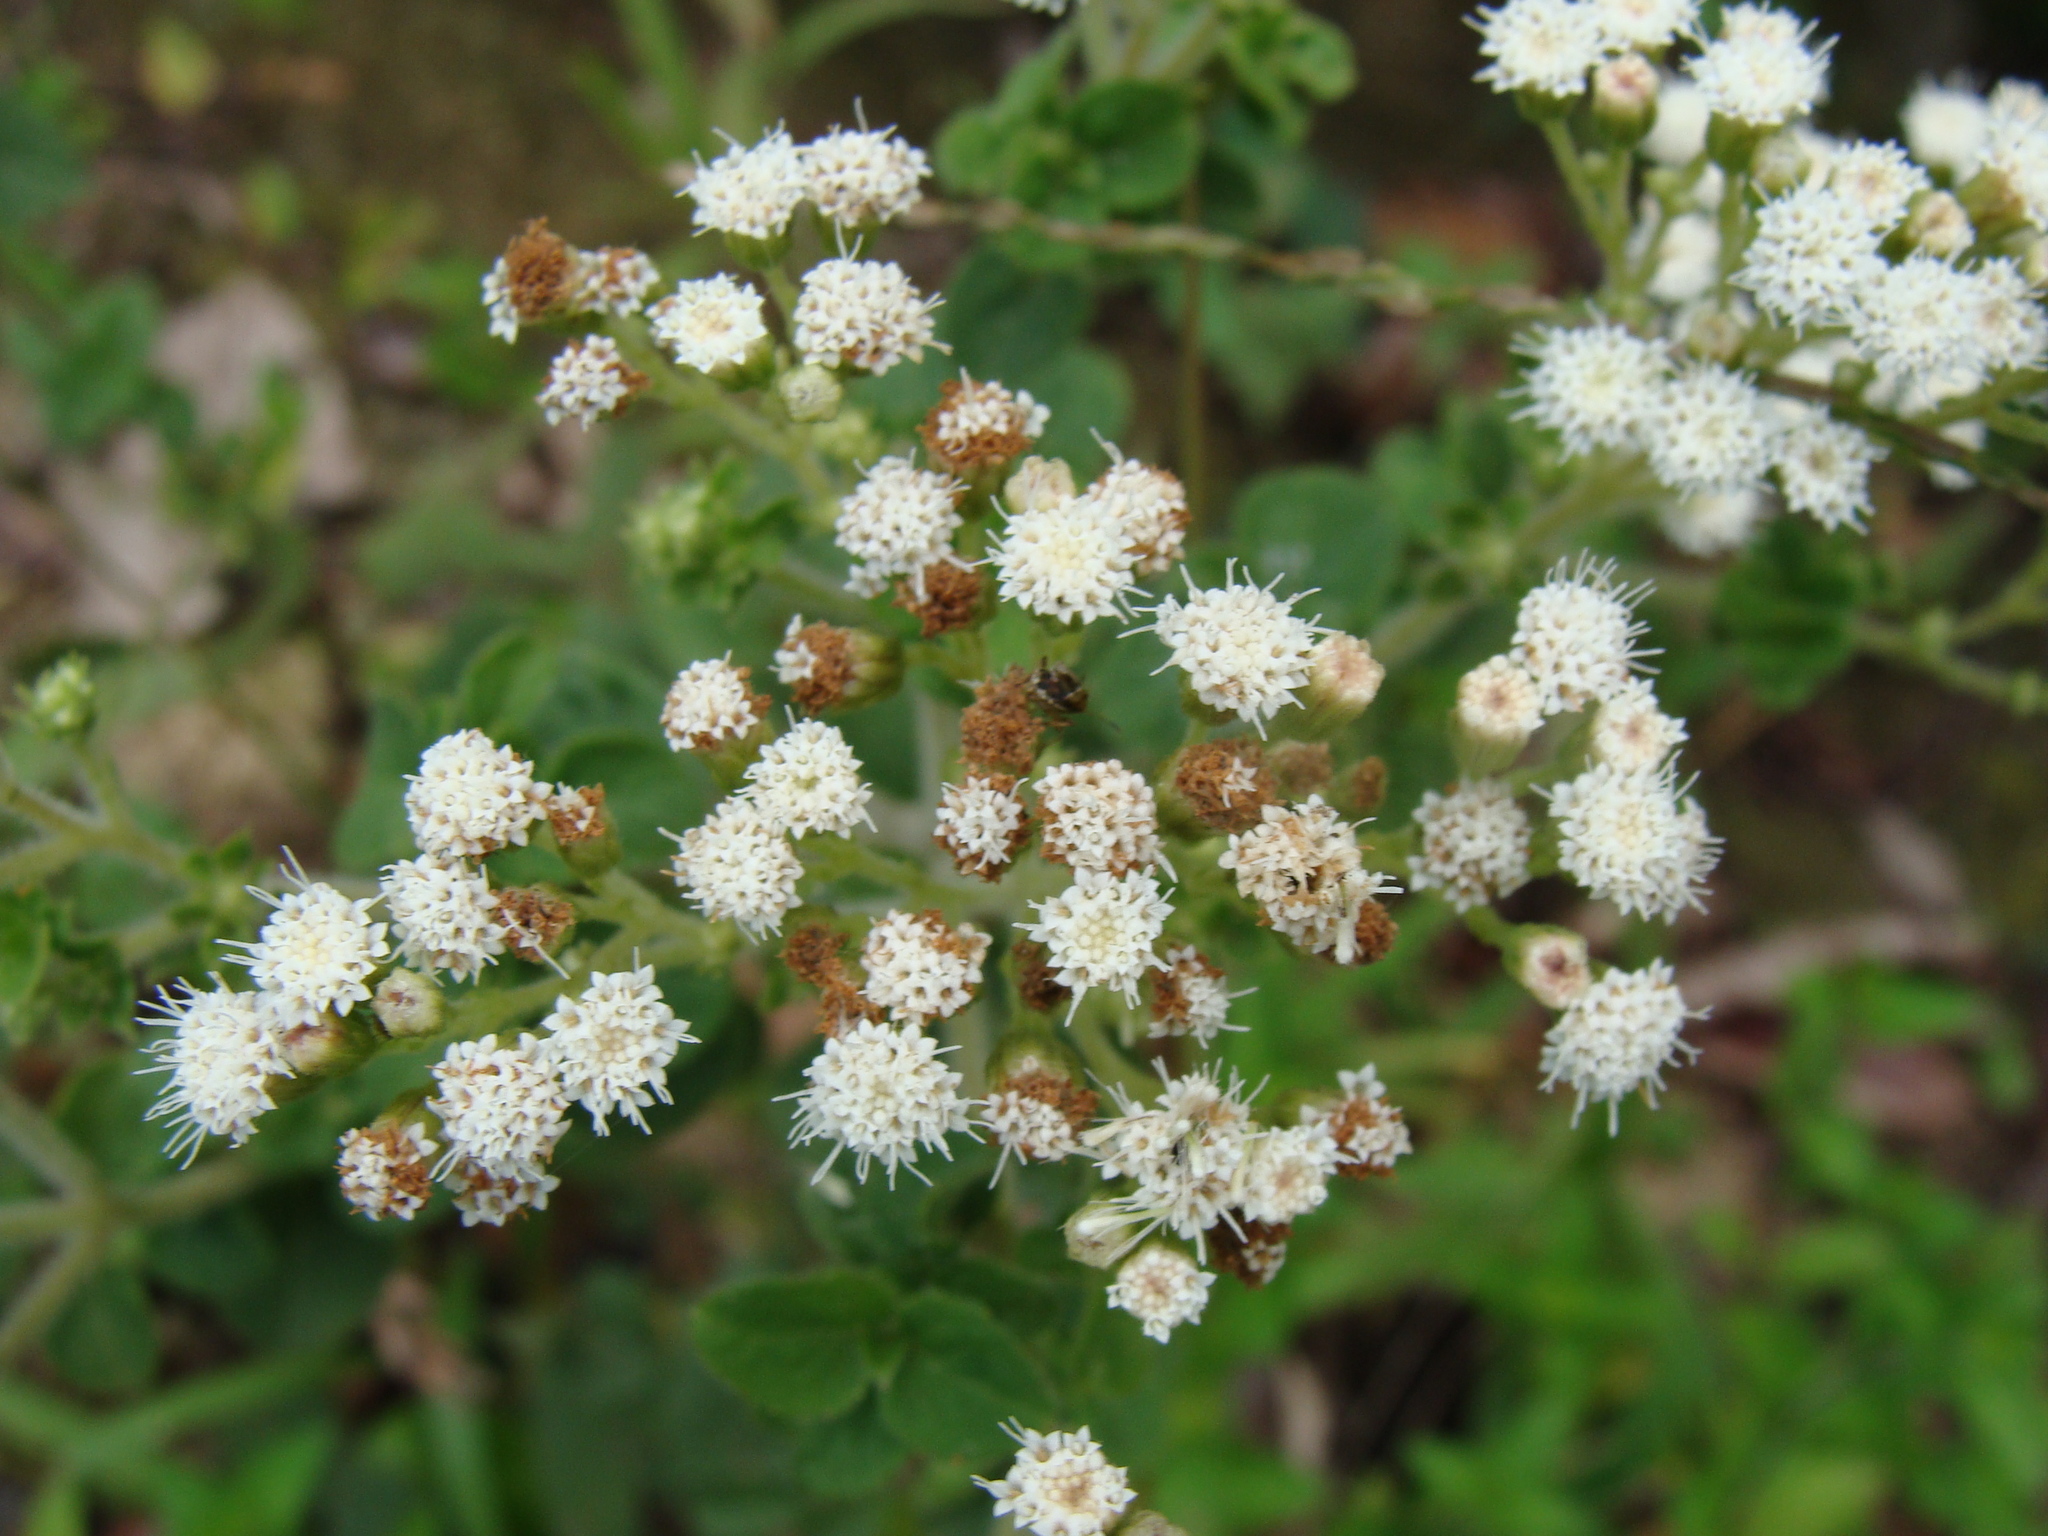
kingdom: Plantae
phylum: Tracheophyta
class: Magnoliopsida
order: Asterales
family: Asteraceae
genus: Ageratina
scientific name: Ageratina pichinchensis
